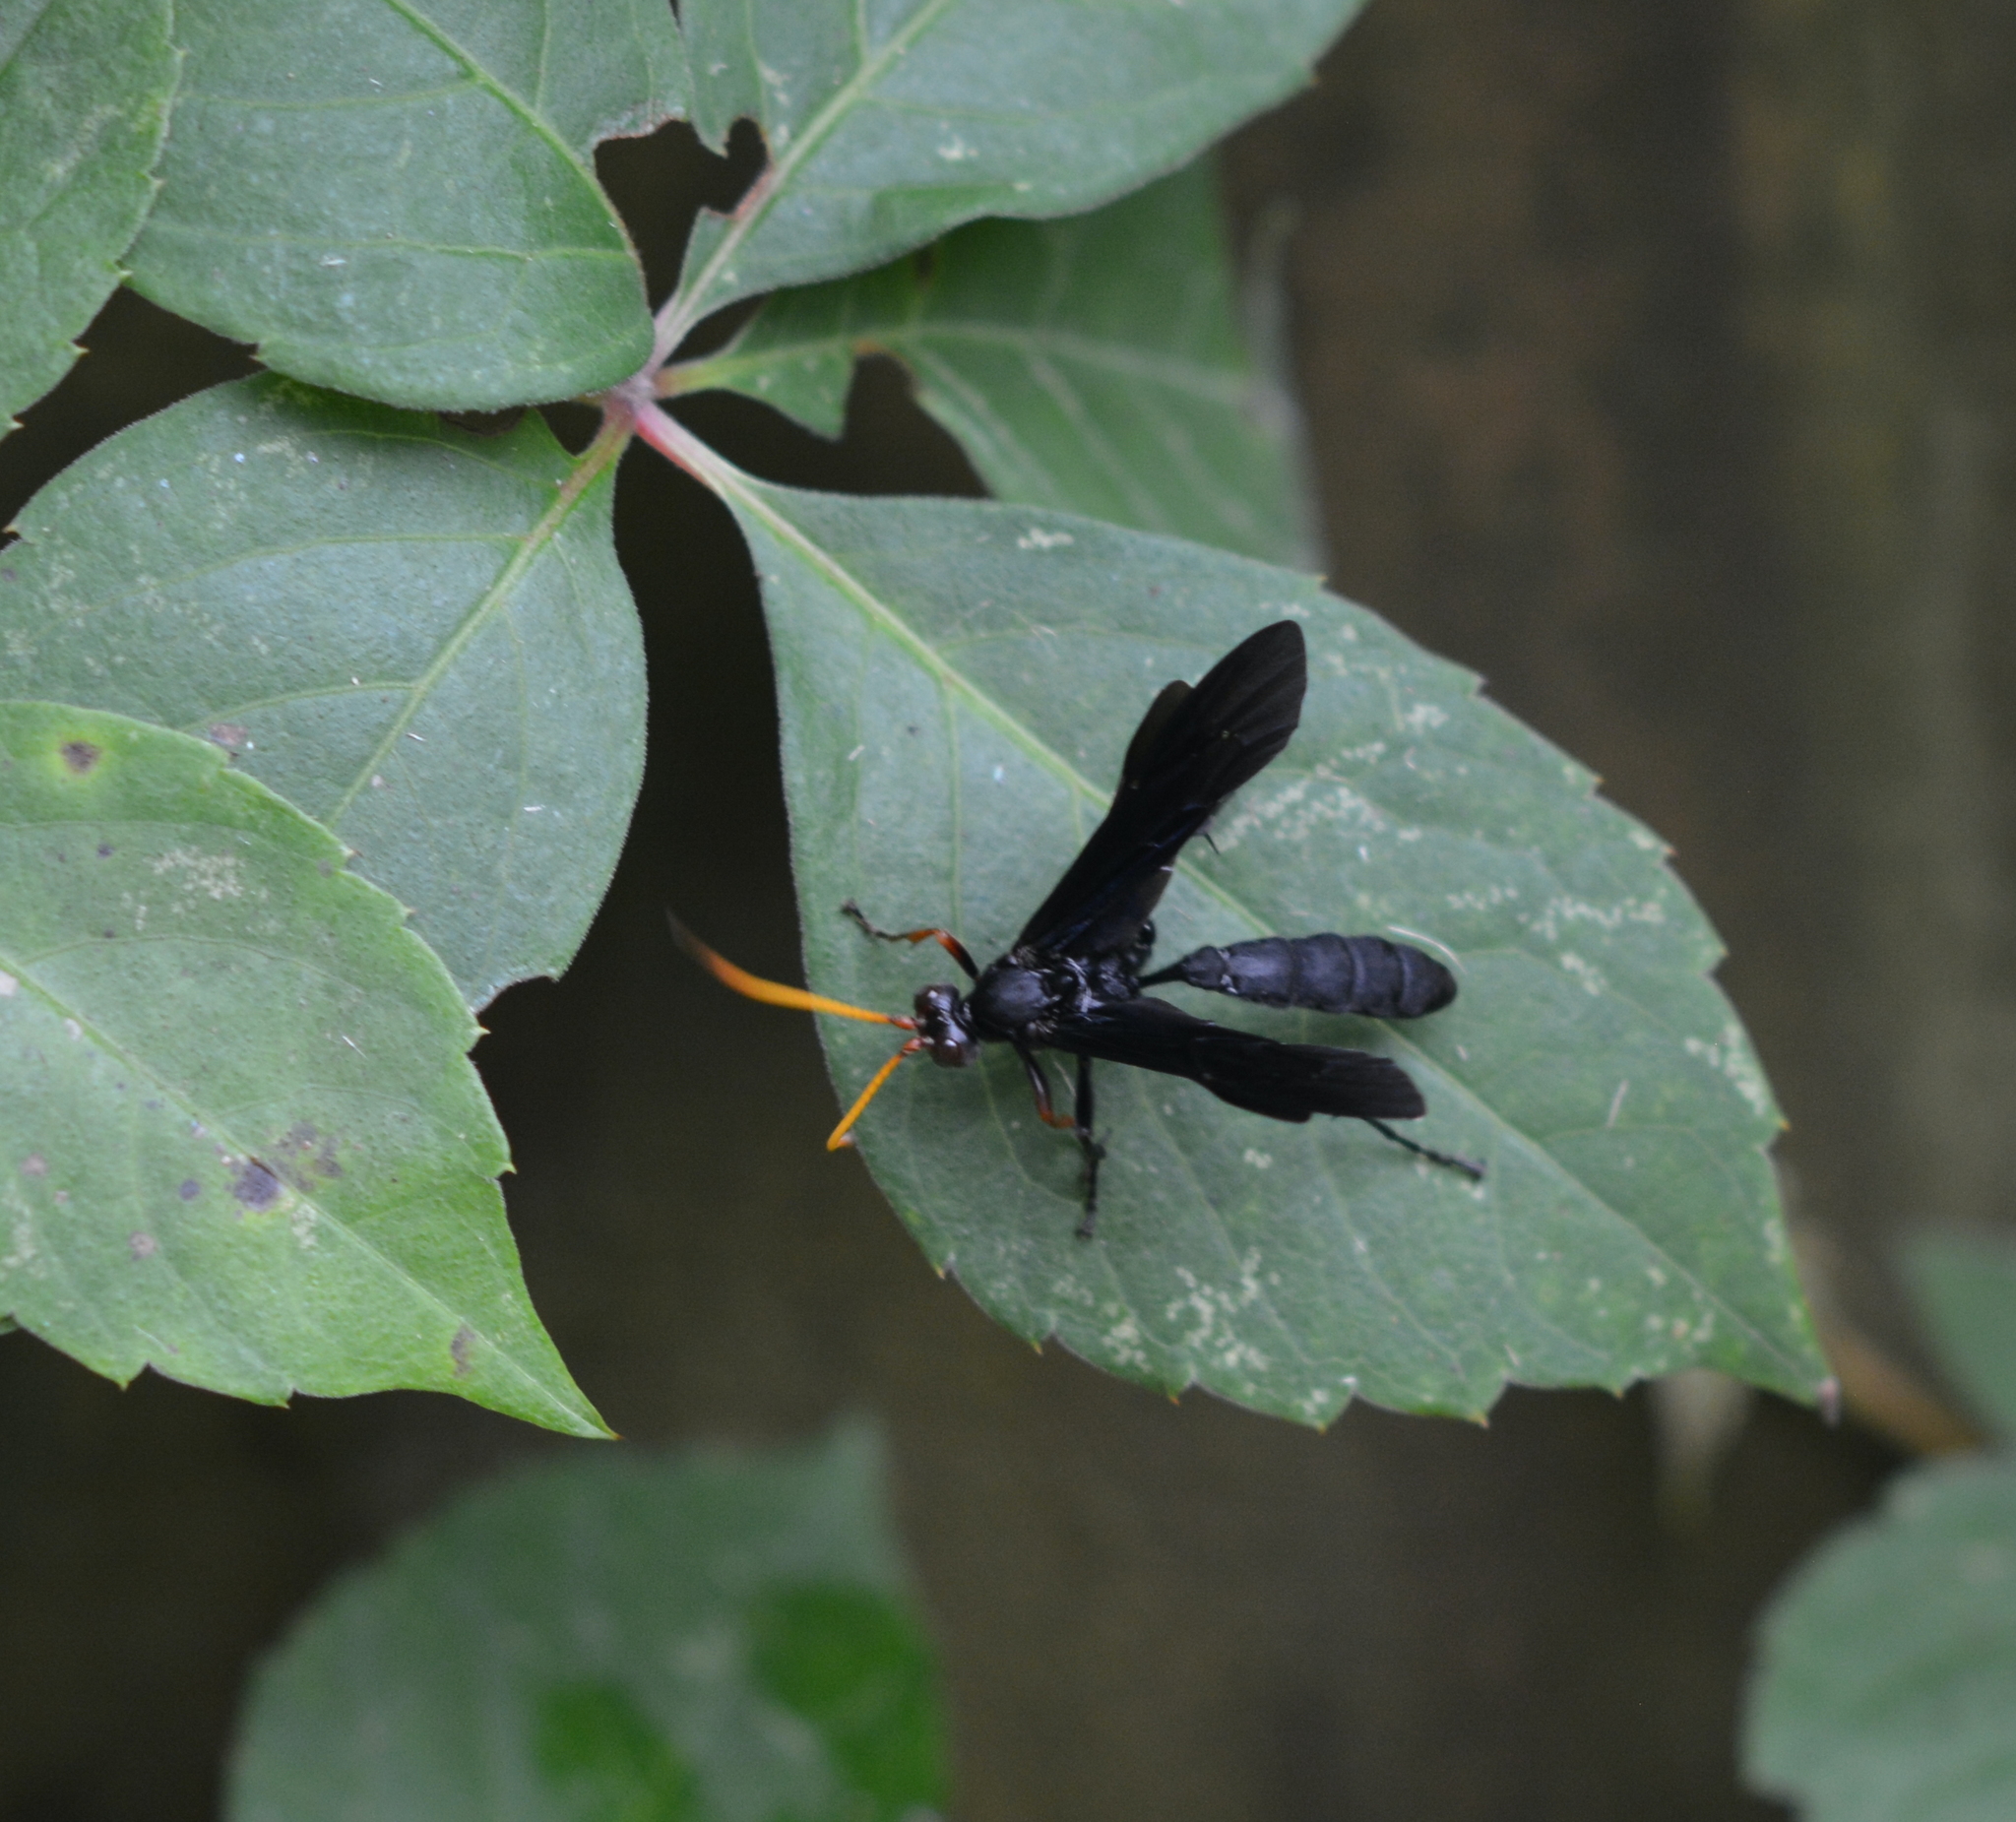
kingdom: Animalia
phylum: Arthropoda
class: Insecta
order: Hymenoptera
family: Ichneumonidae
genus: Gnamptopelta
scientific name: Gnamptopelta obsidianator
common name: Bent-shielded besieger wasp
